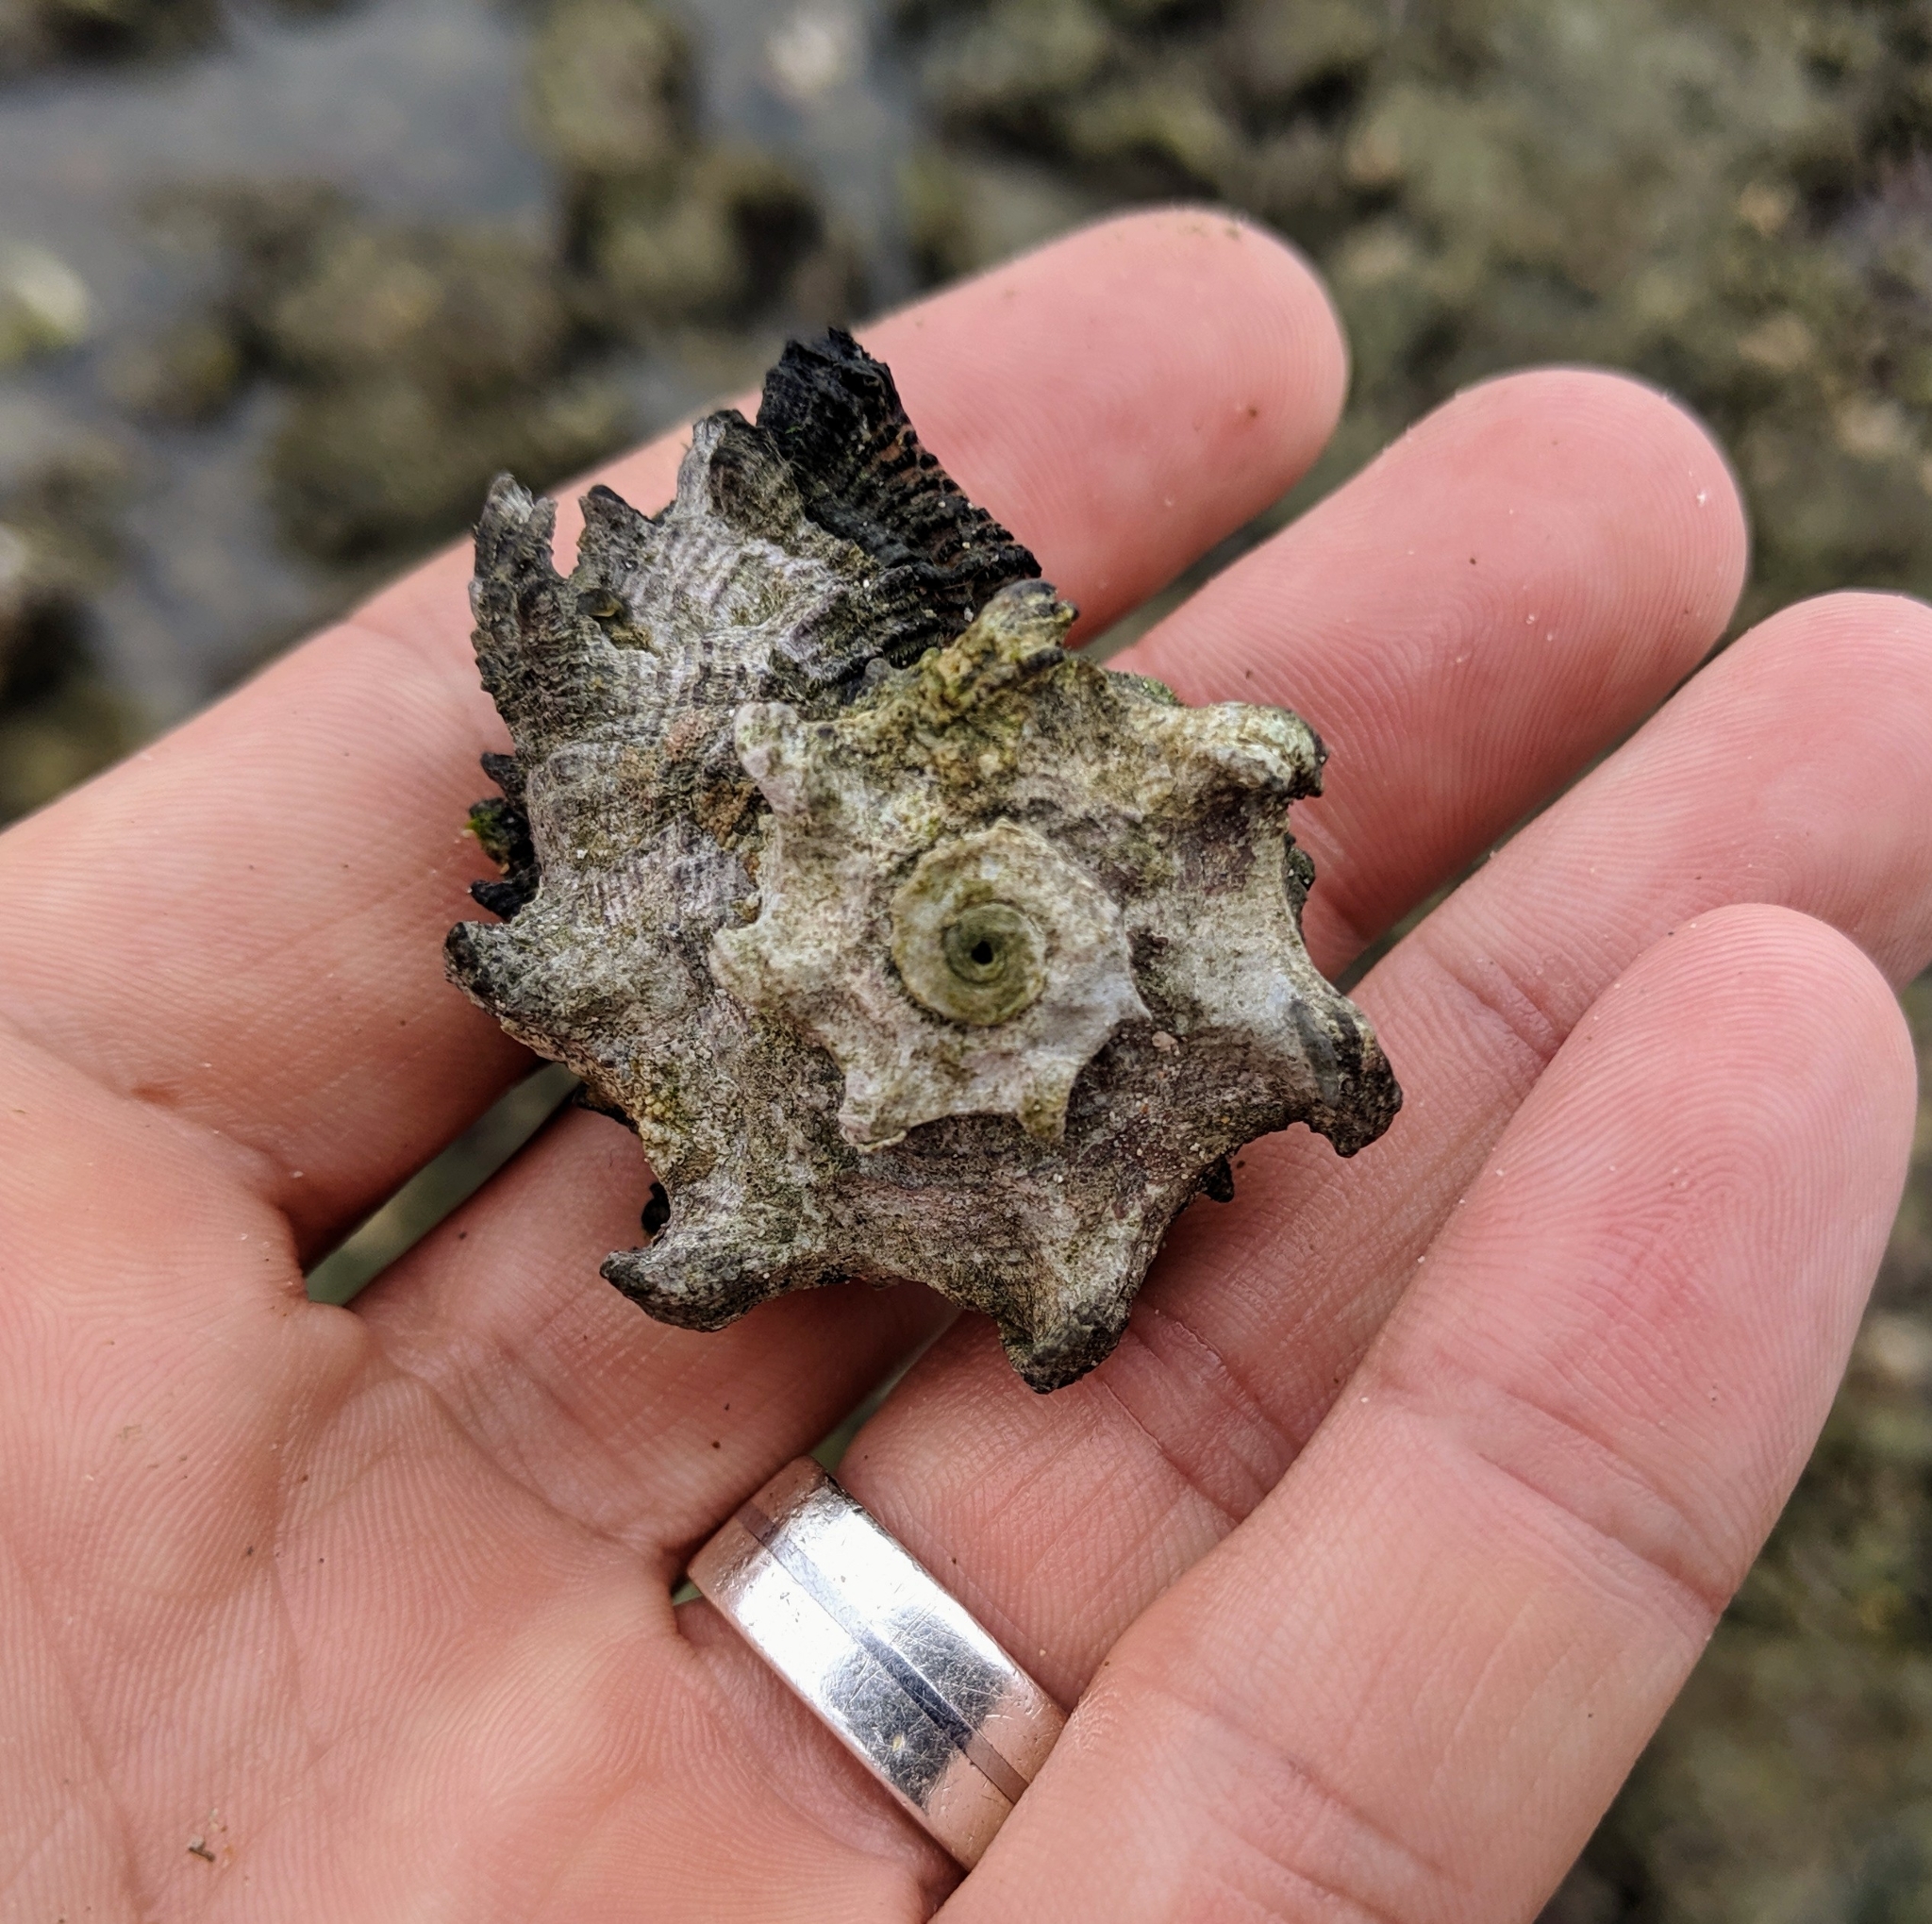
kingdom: Animalia
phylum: Mollusca
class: Gastropoda
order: Trochida
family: Angariidae
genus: Angaria
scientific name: Angaria delphinus
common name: Dolphin shell
